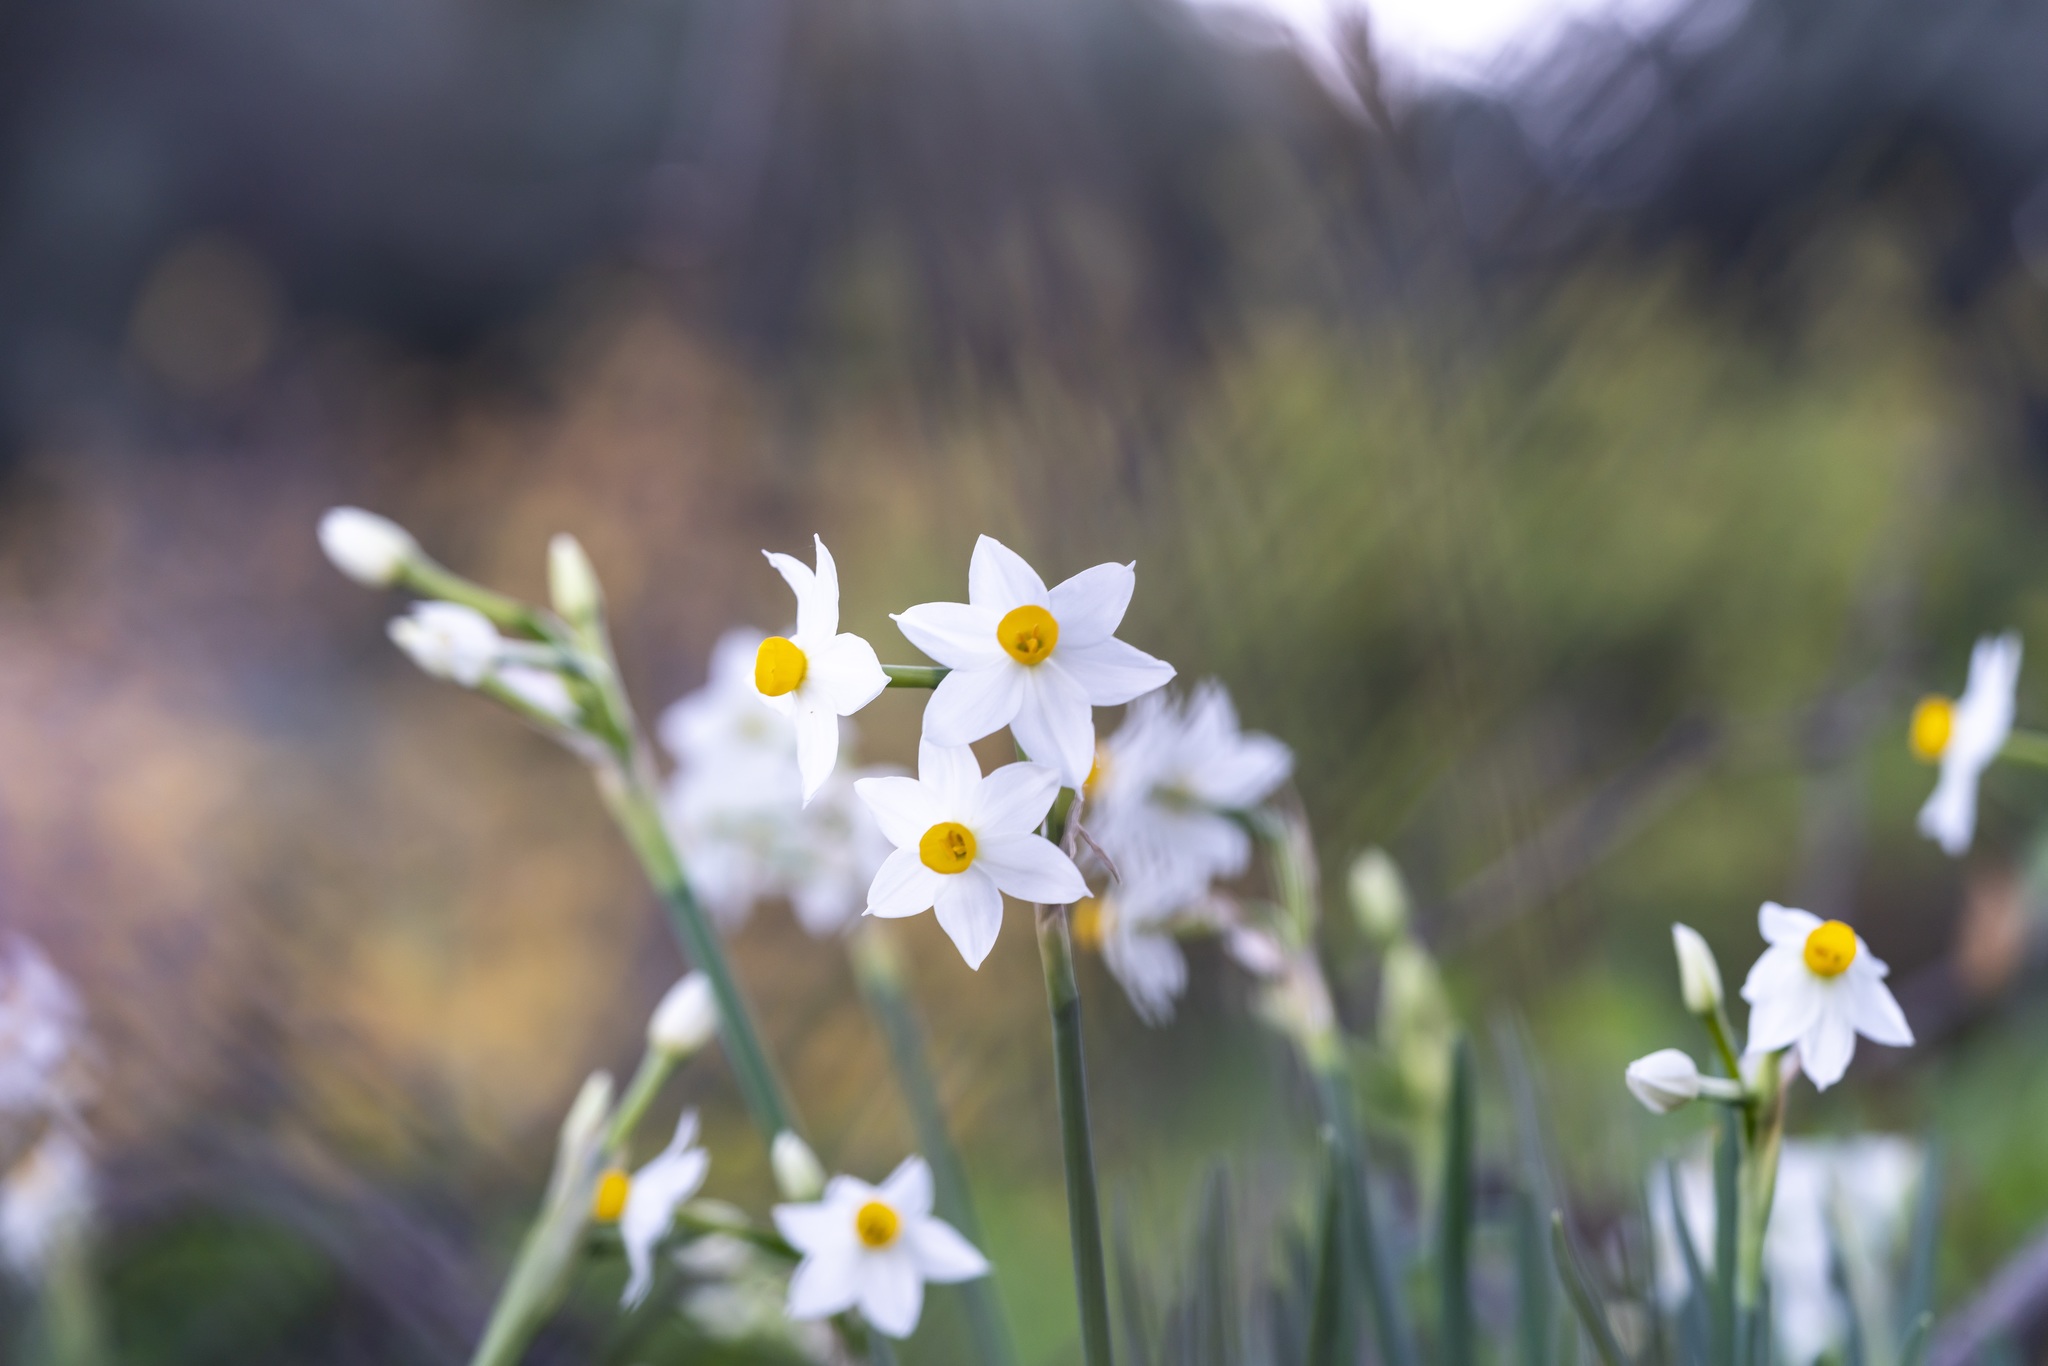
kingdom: Plantae
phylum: Tracheophyta
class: Liliopsida
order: Asparagales
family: Amaryllidaceae
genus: Narcissus
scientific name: Narcissus tazetta
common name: Bunch-flowered daffodil
